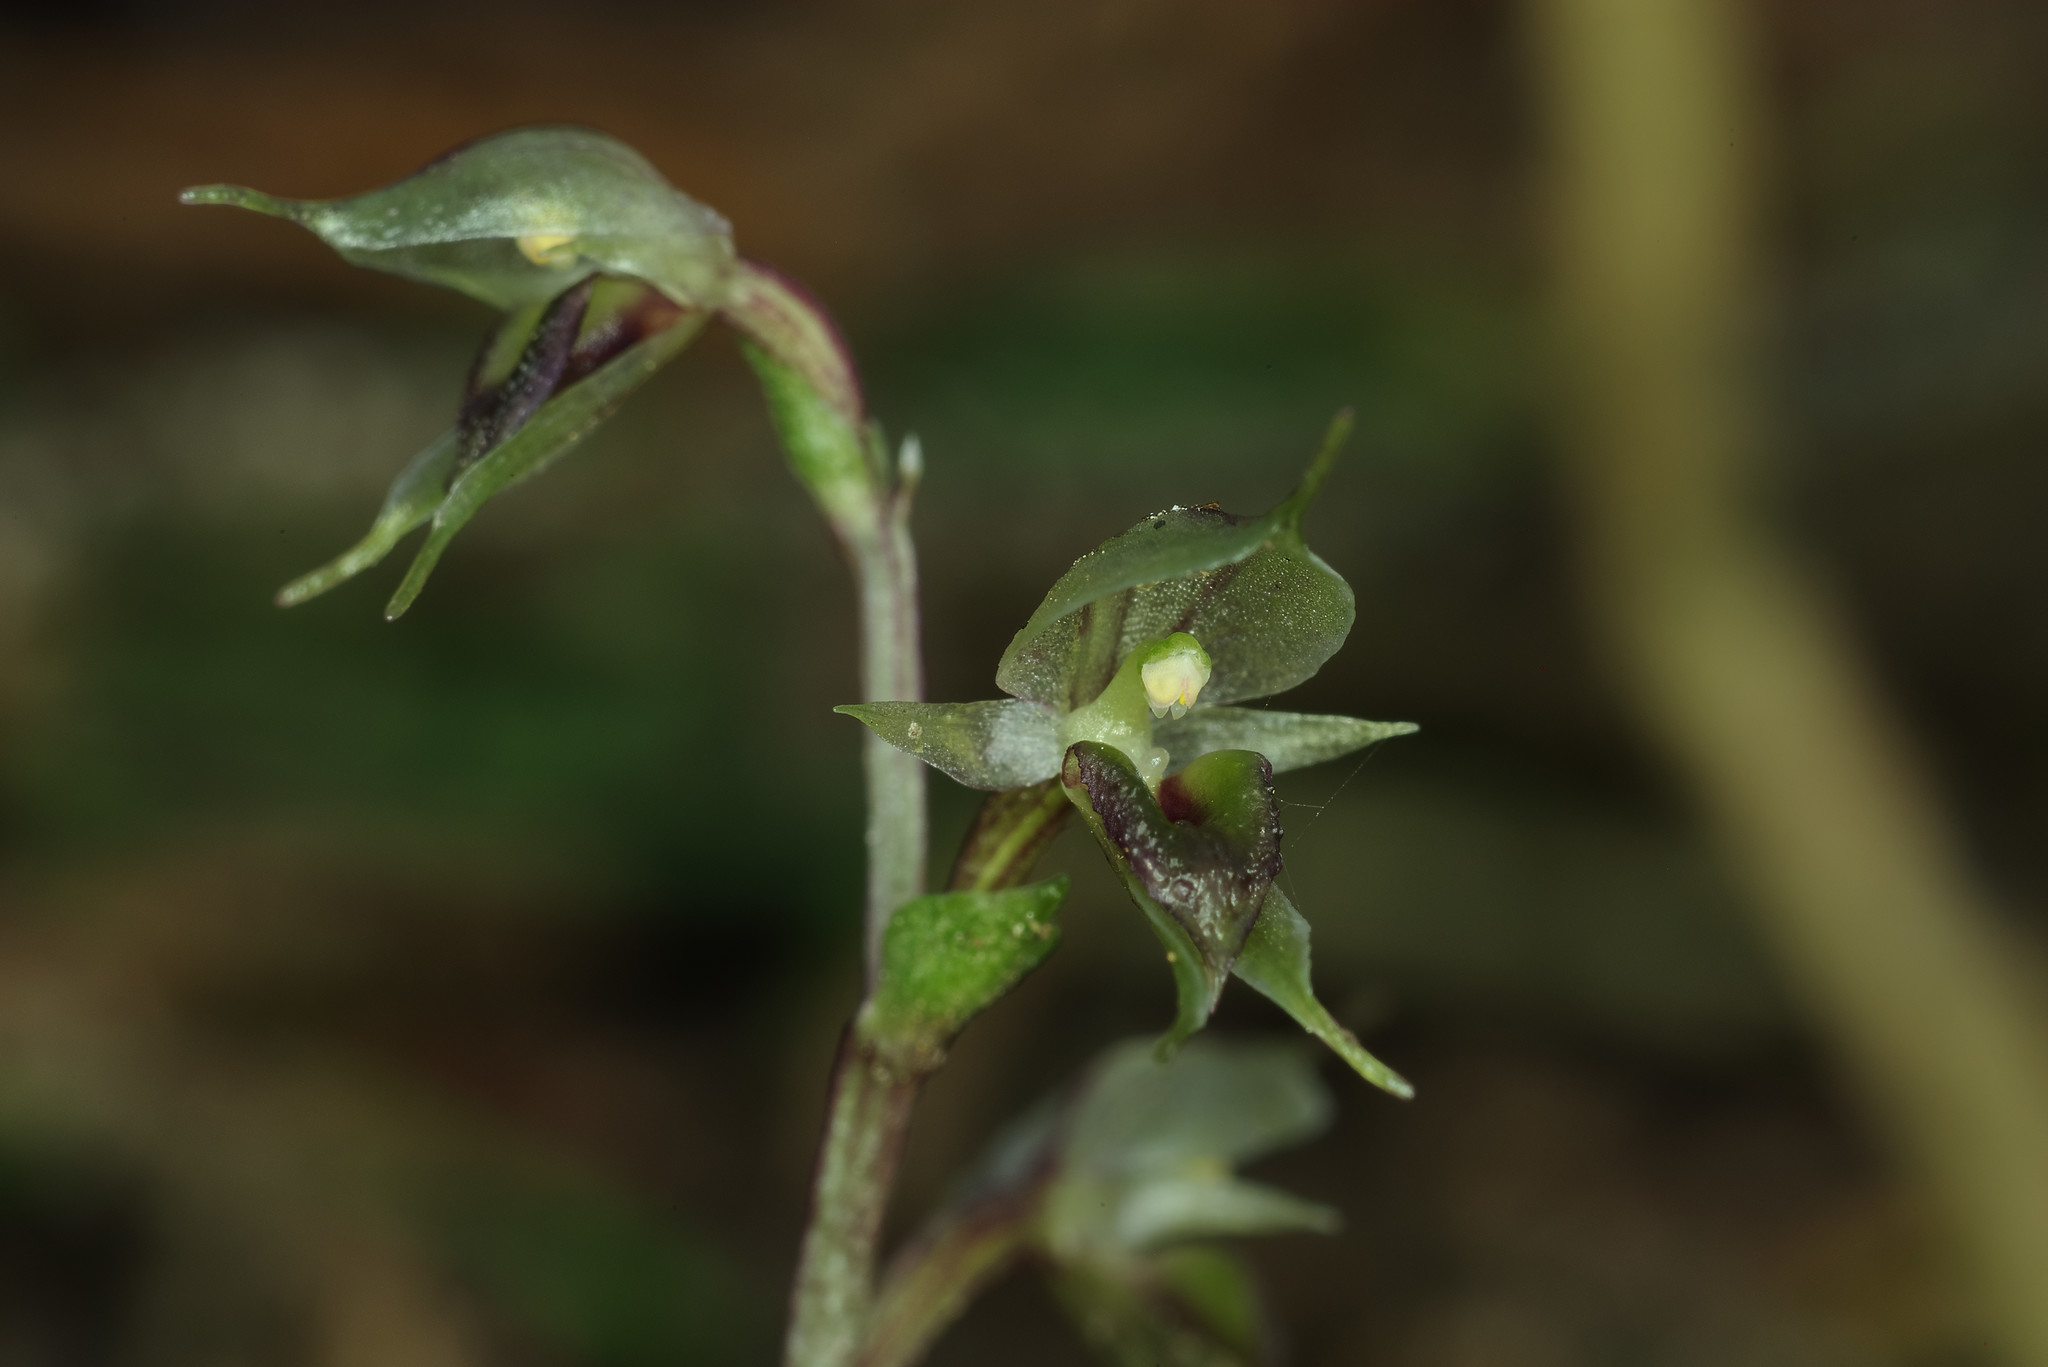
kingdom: Plantae
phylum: Tracheophyta
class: Liliopsida
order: Asparagales
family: Orchidaceae
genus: Acianthus
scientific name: Acianthus sinclairii
